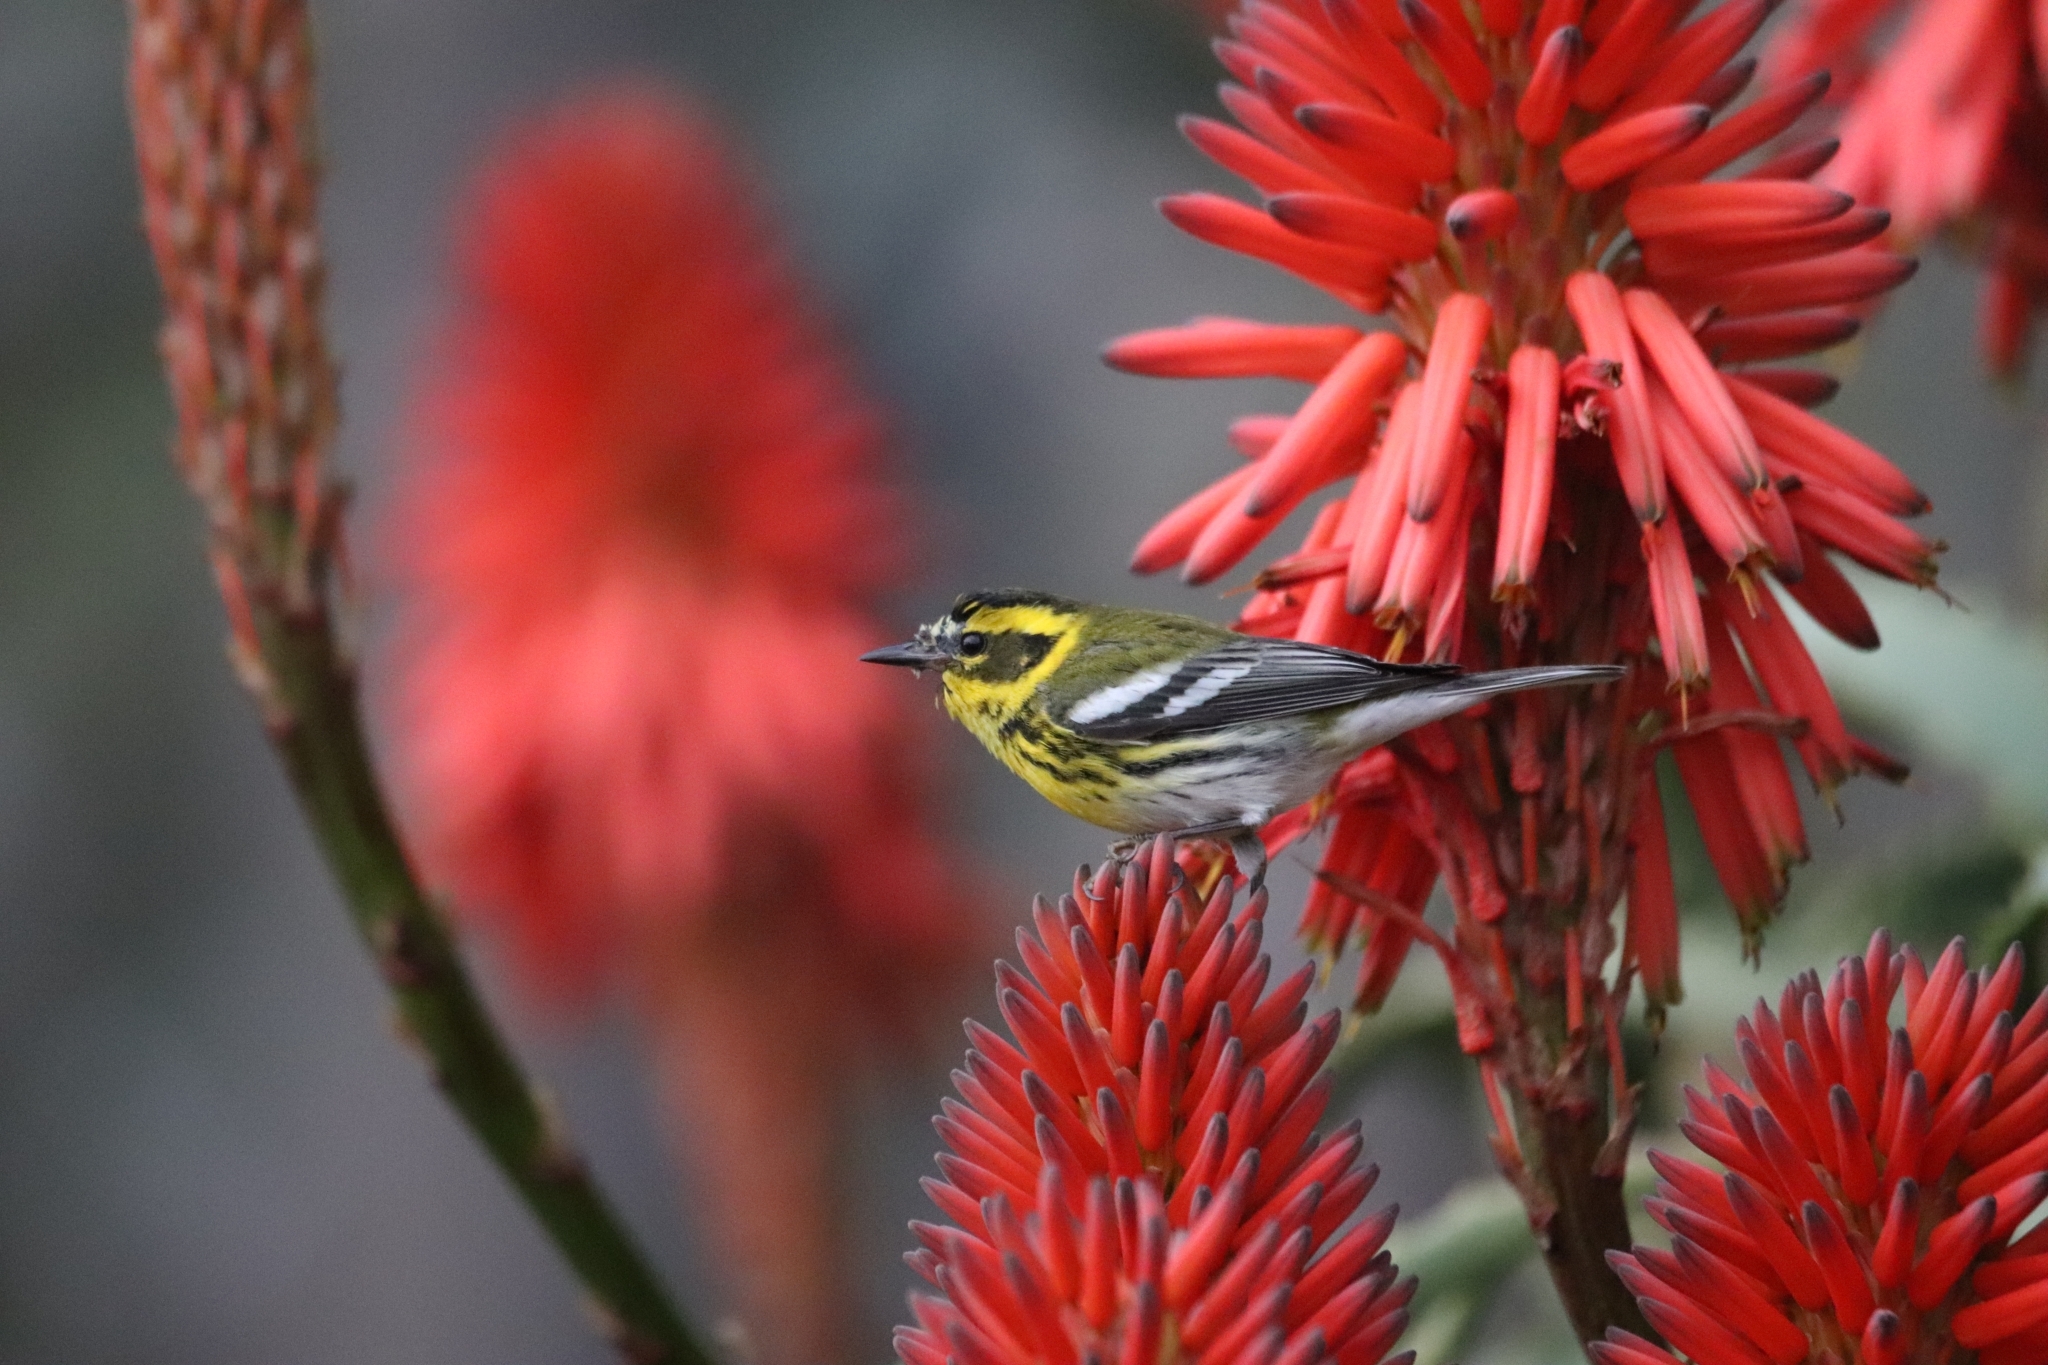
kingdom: Animalia
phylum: Chordata
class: Aves
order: Passeriformes
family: Parulidae
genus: Setophaga
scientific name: Setophaga townsendi
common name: Townsend's warbler
